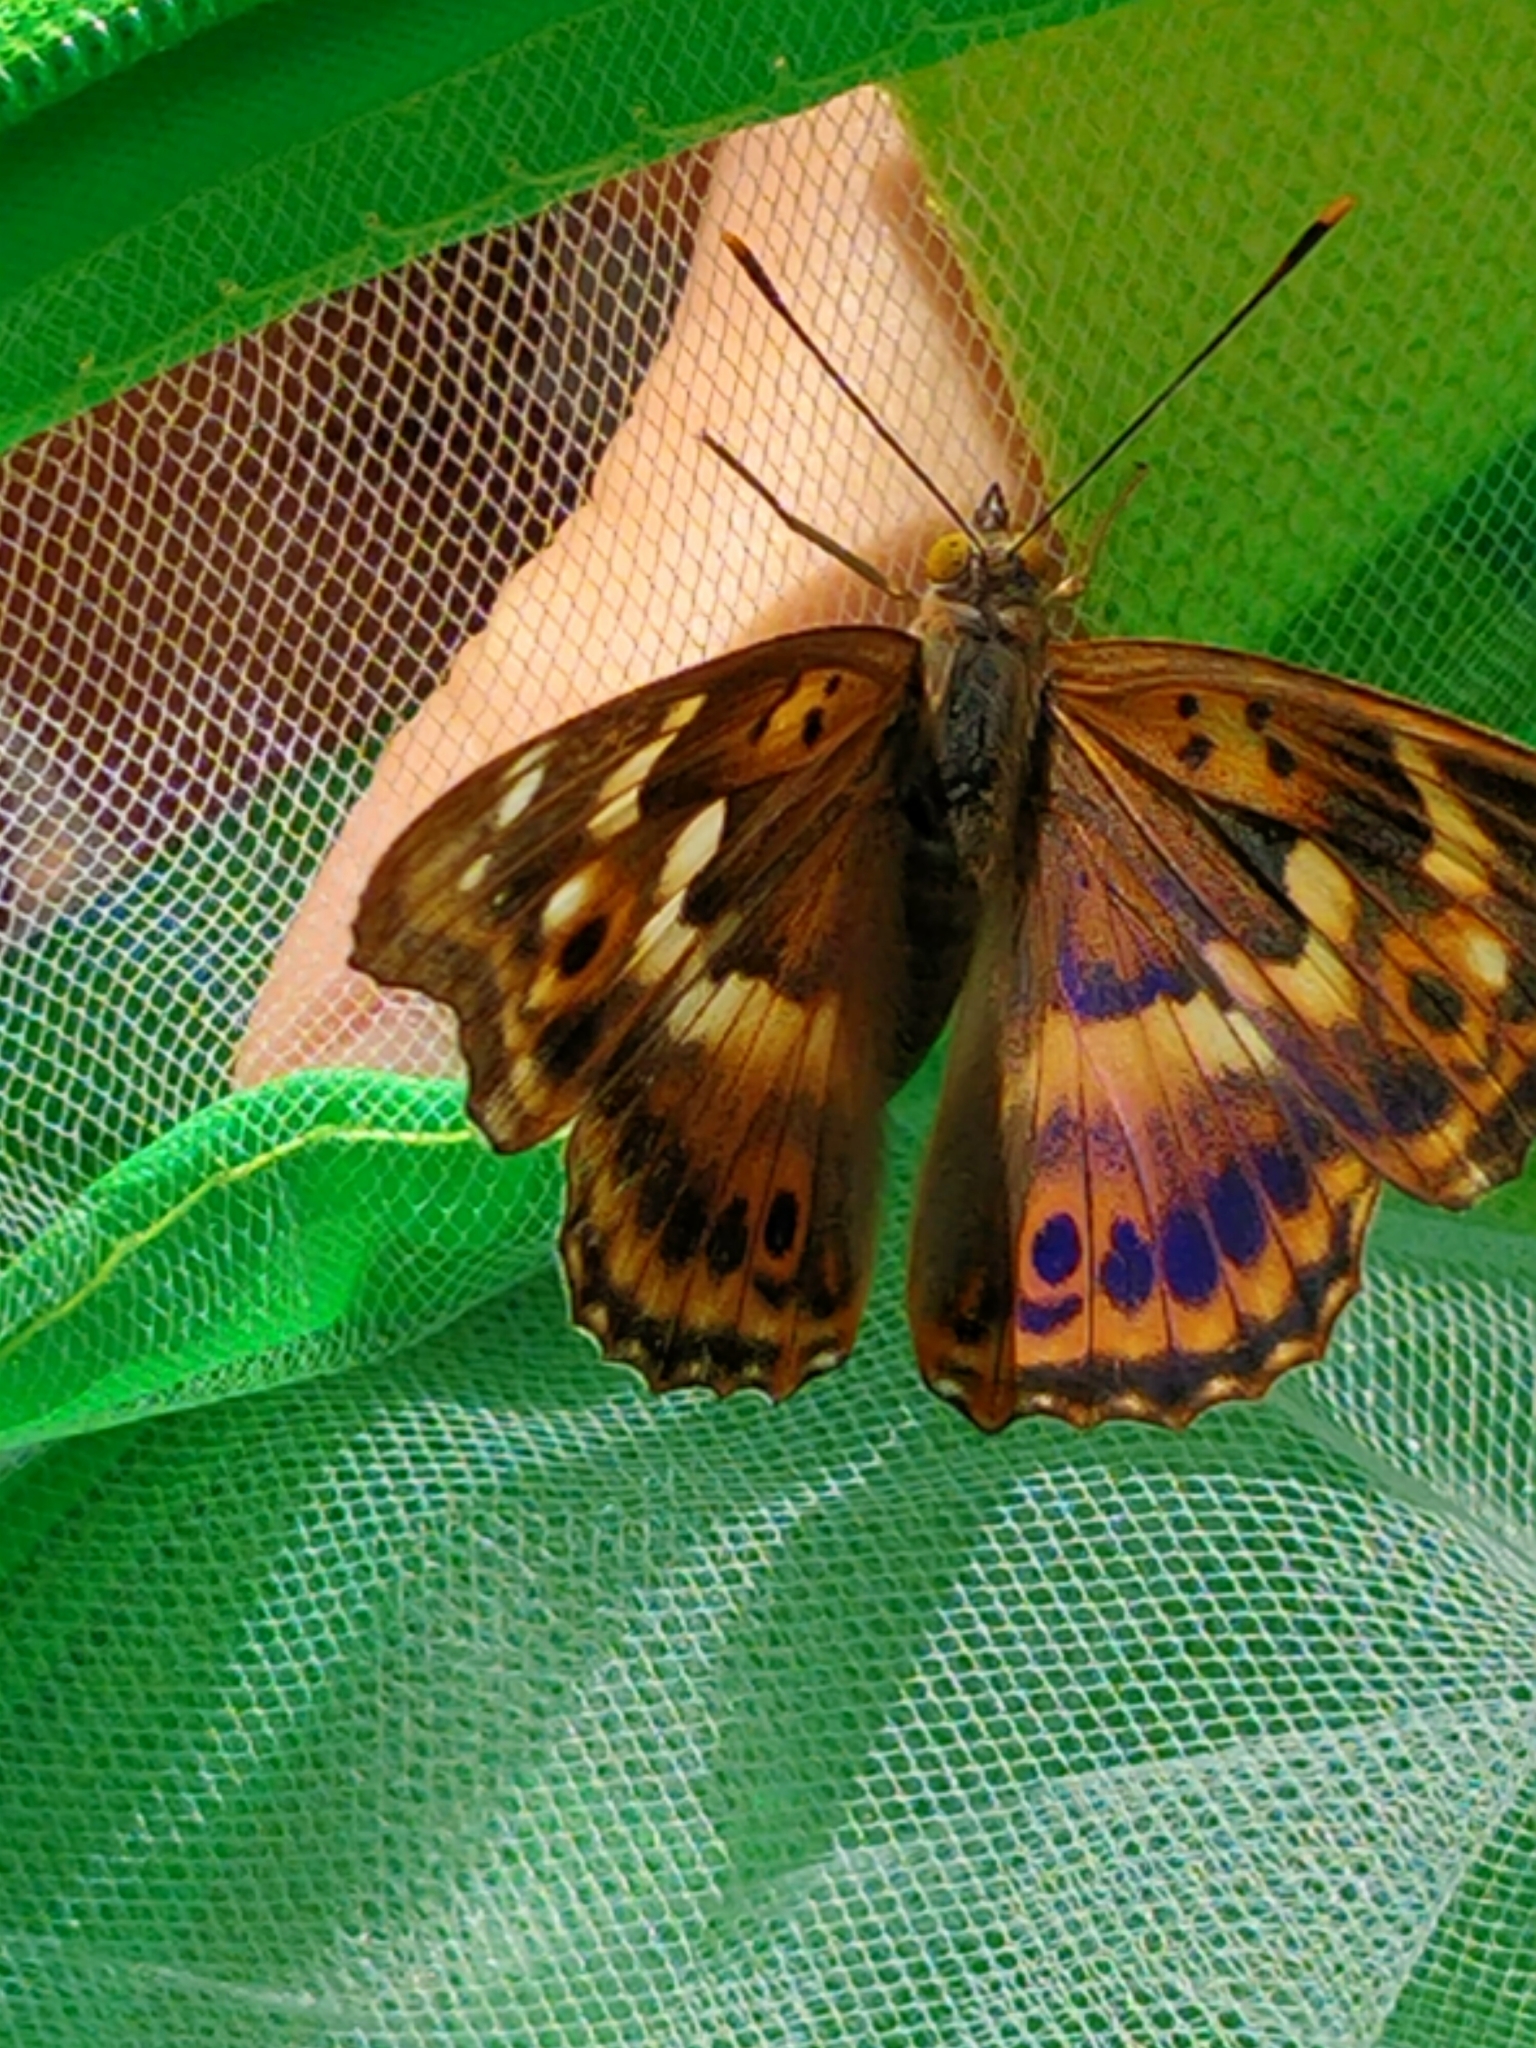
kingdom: Animalia
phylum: Arthropoda
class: Insecta
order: Lepidoptera
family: Nymphalidae
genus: Apatura
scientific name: Apatura ilia
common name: Lesser purple emperor
